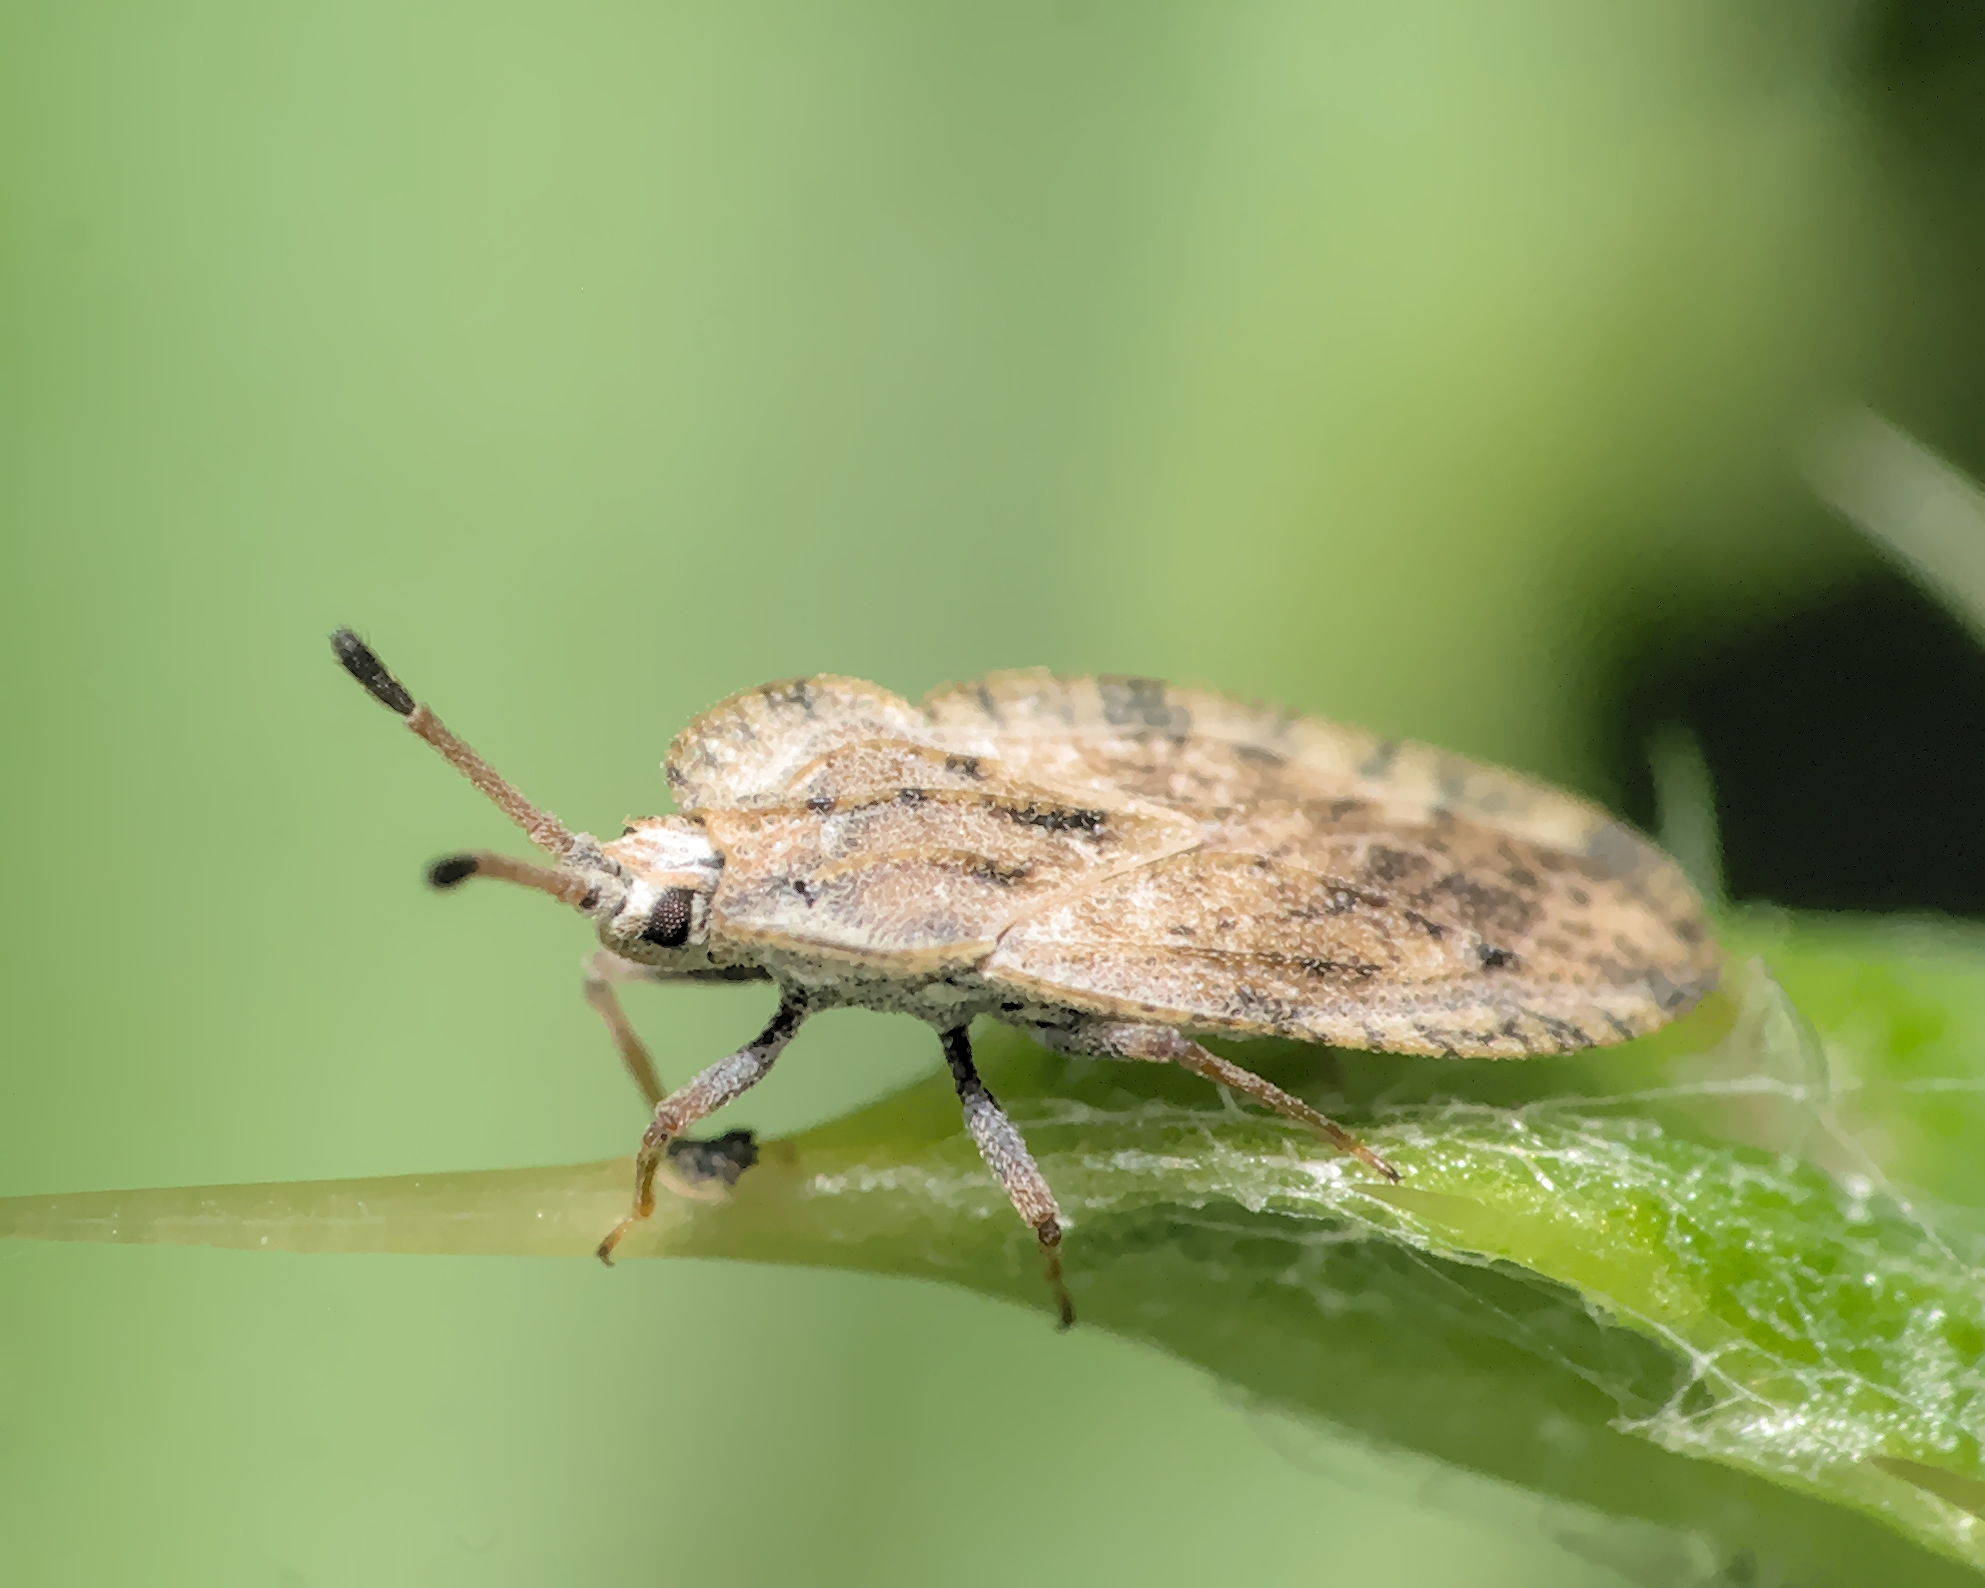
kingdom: Animalia
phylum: Arthropoda
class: Insecta
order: Hemiptera
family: Tingidae
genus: Tingis
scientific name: Tingis ampliata
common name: Creeping thistle lacebug
